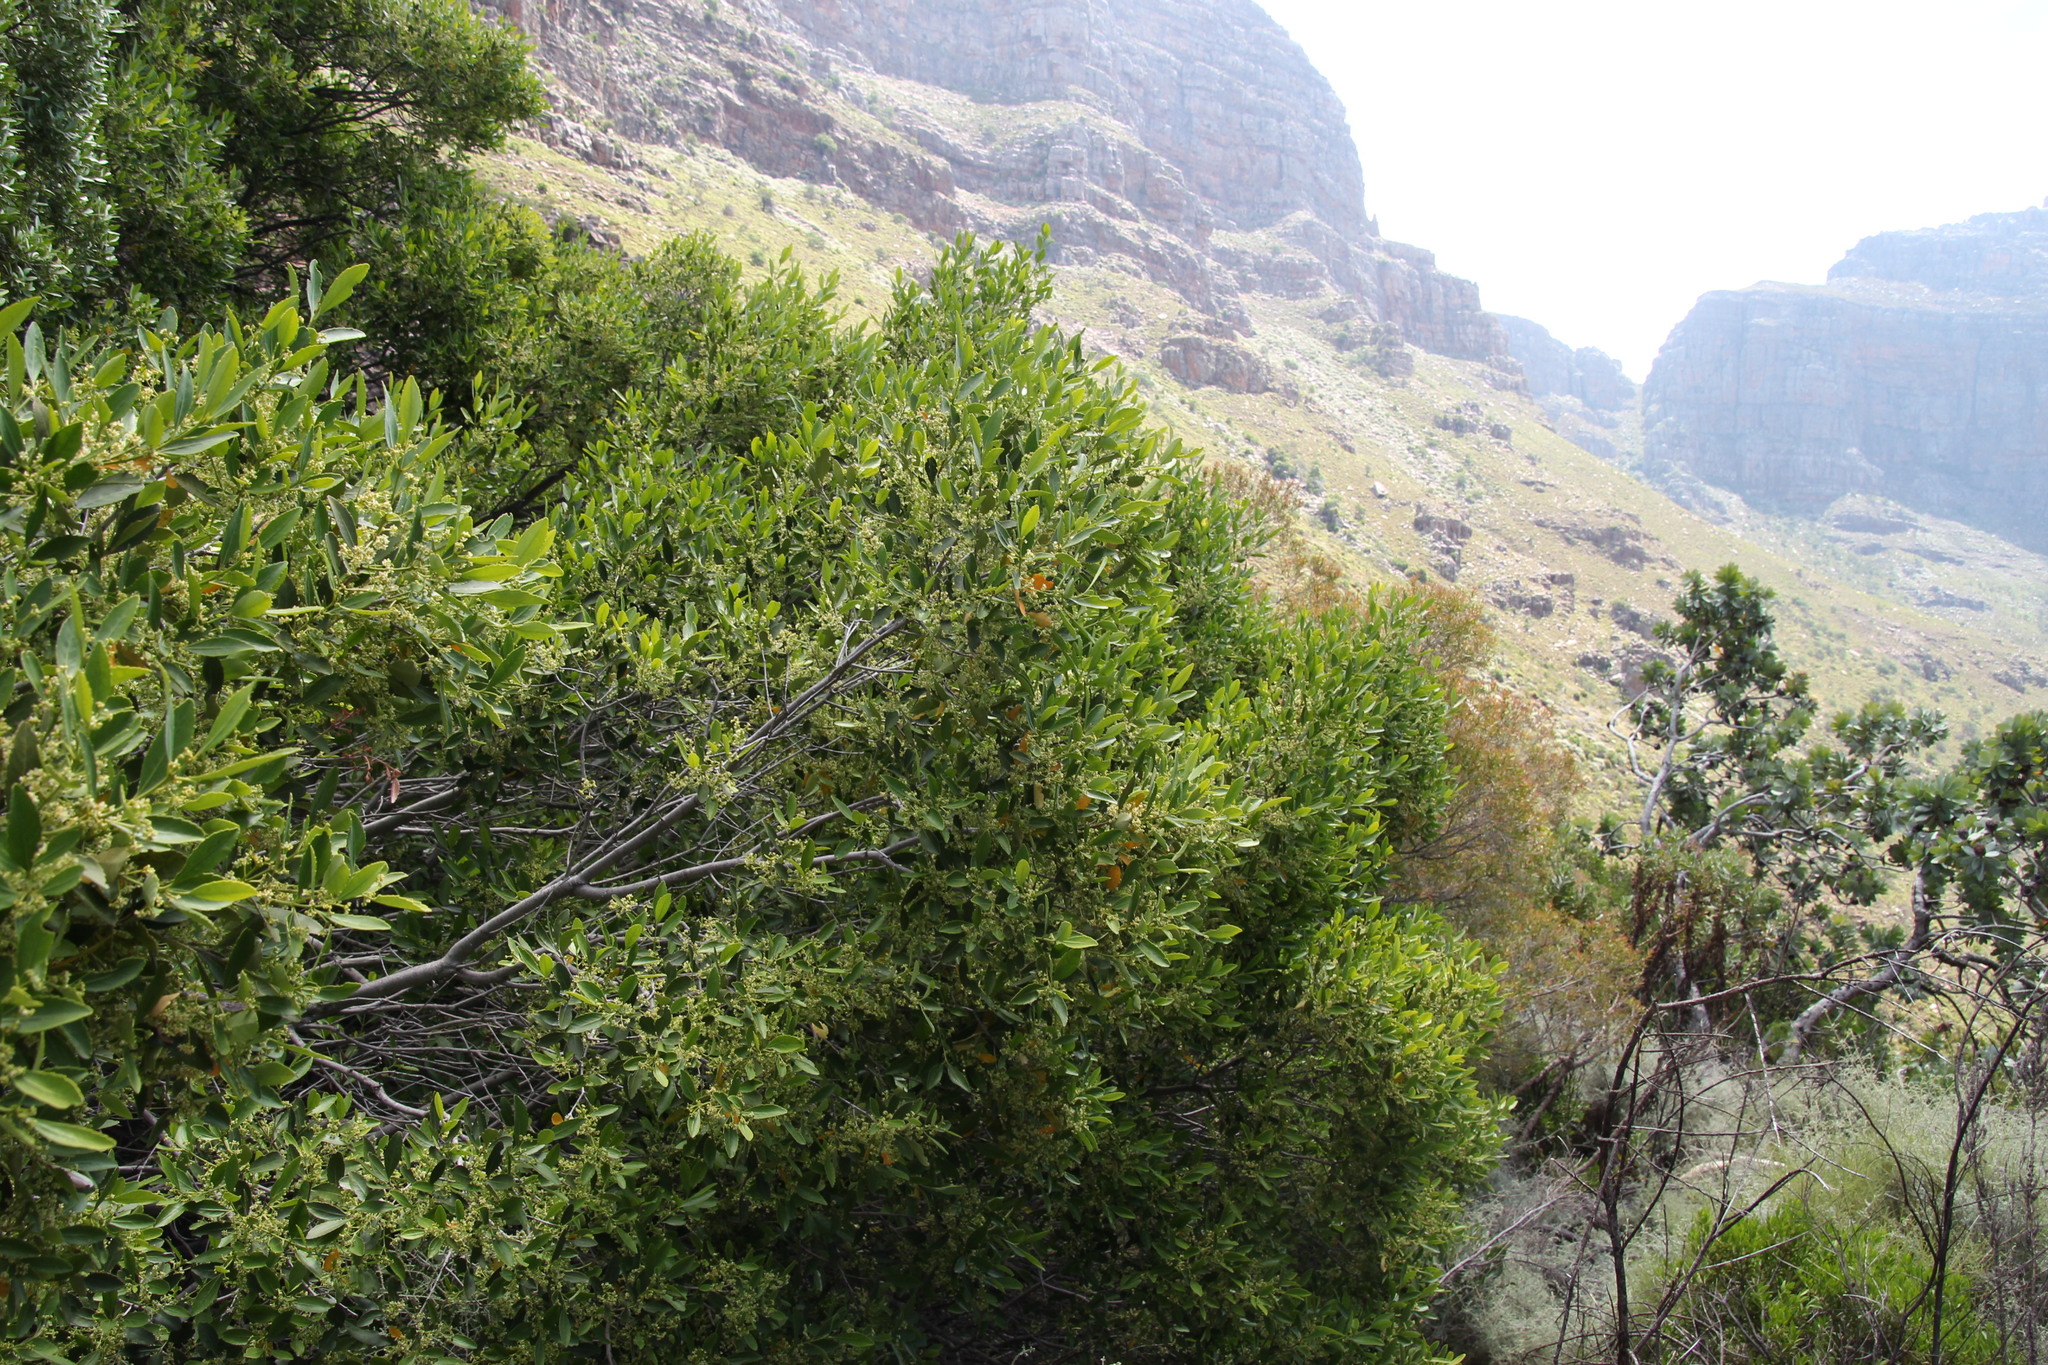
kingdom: Plantae
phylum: Tracheophyta
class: Magnoliopsida
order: Celastrales
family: Celastraceae
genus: Elaeodendron
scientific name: Elaeodendron schinoides
